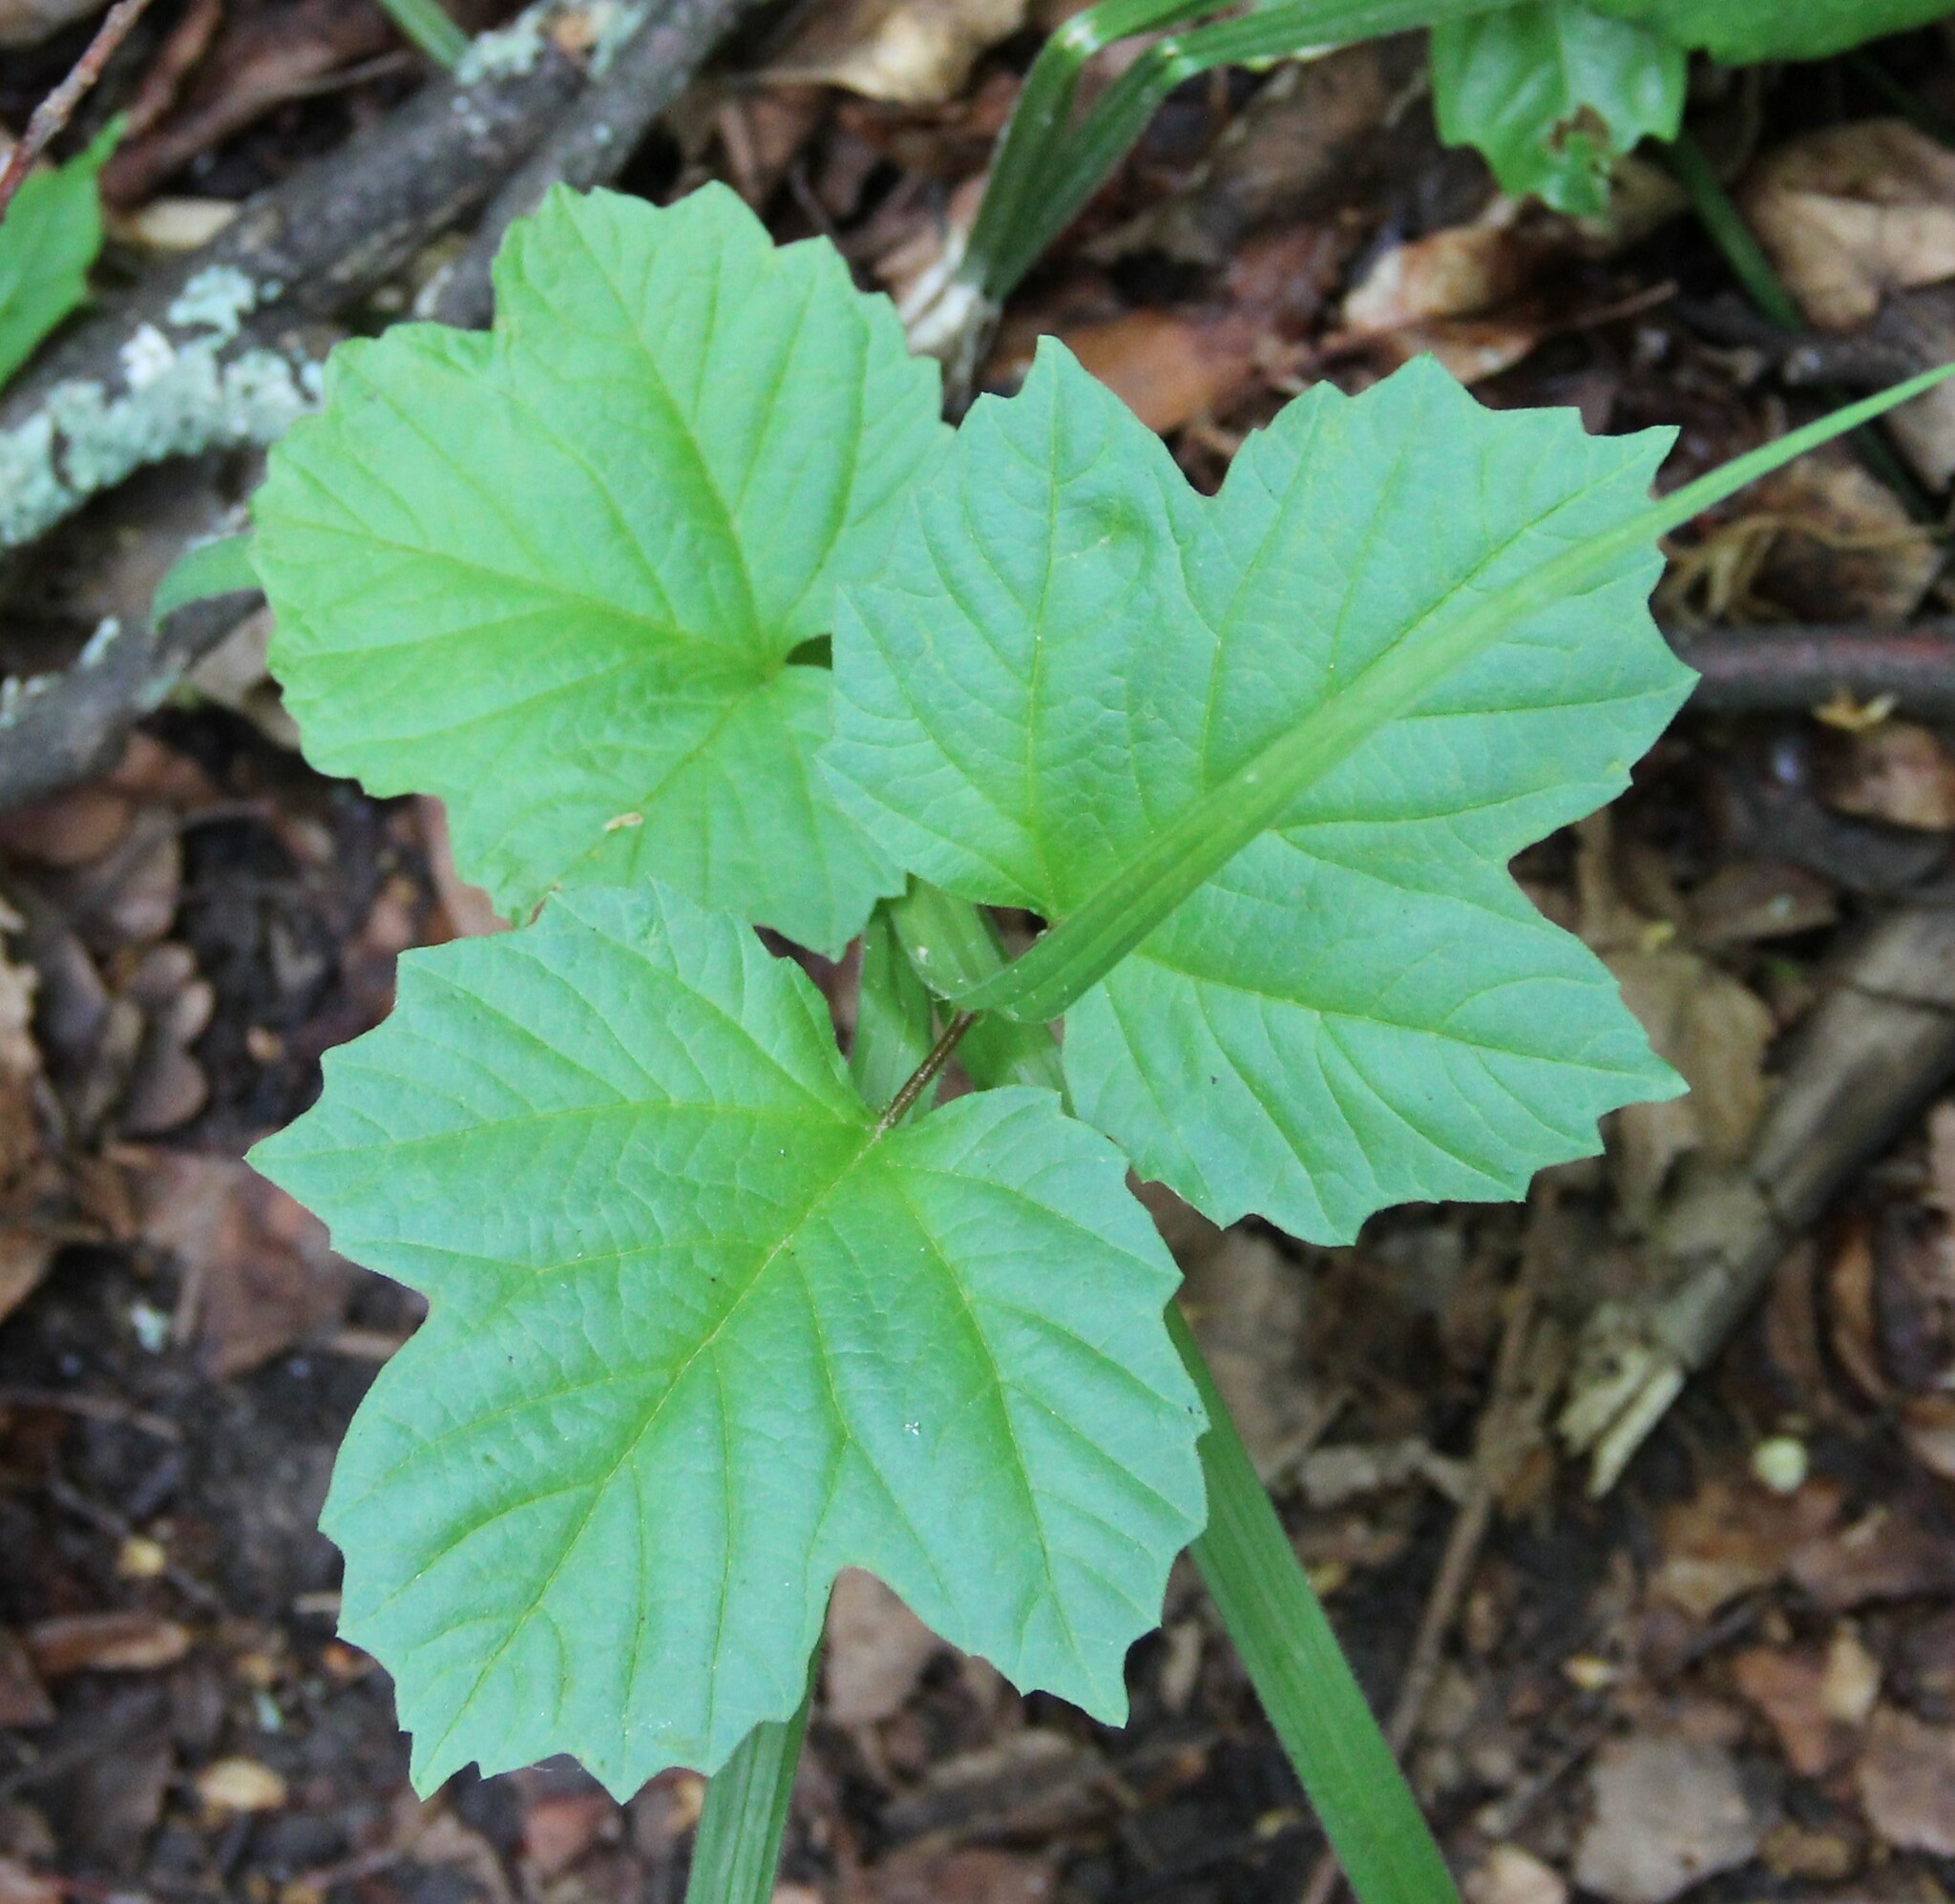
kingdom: Plantae
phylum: Tracheophyta
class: Magnoliopsida
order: Dipsacales
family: Viburnaceae
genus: Viburnum
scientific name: Viburnum opulus
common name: Guelder-rose
